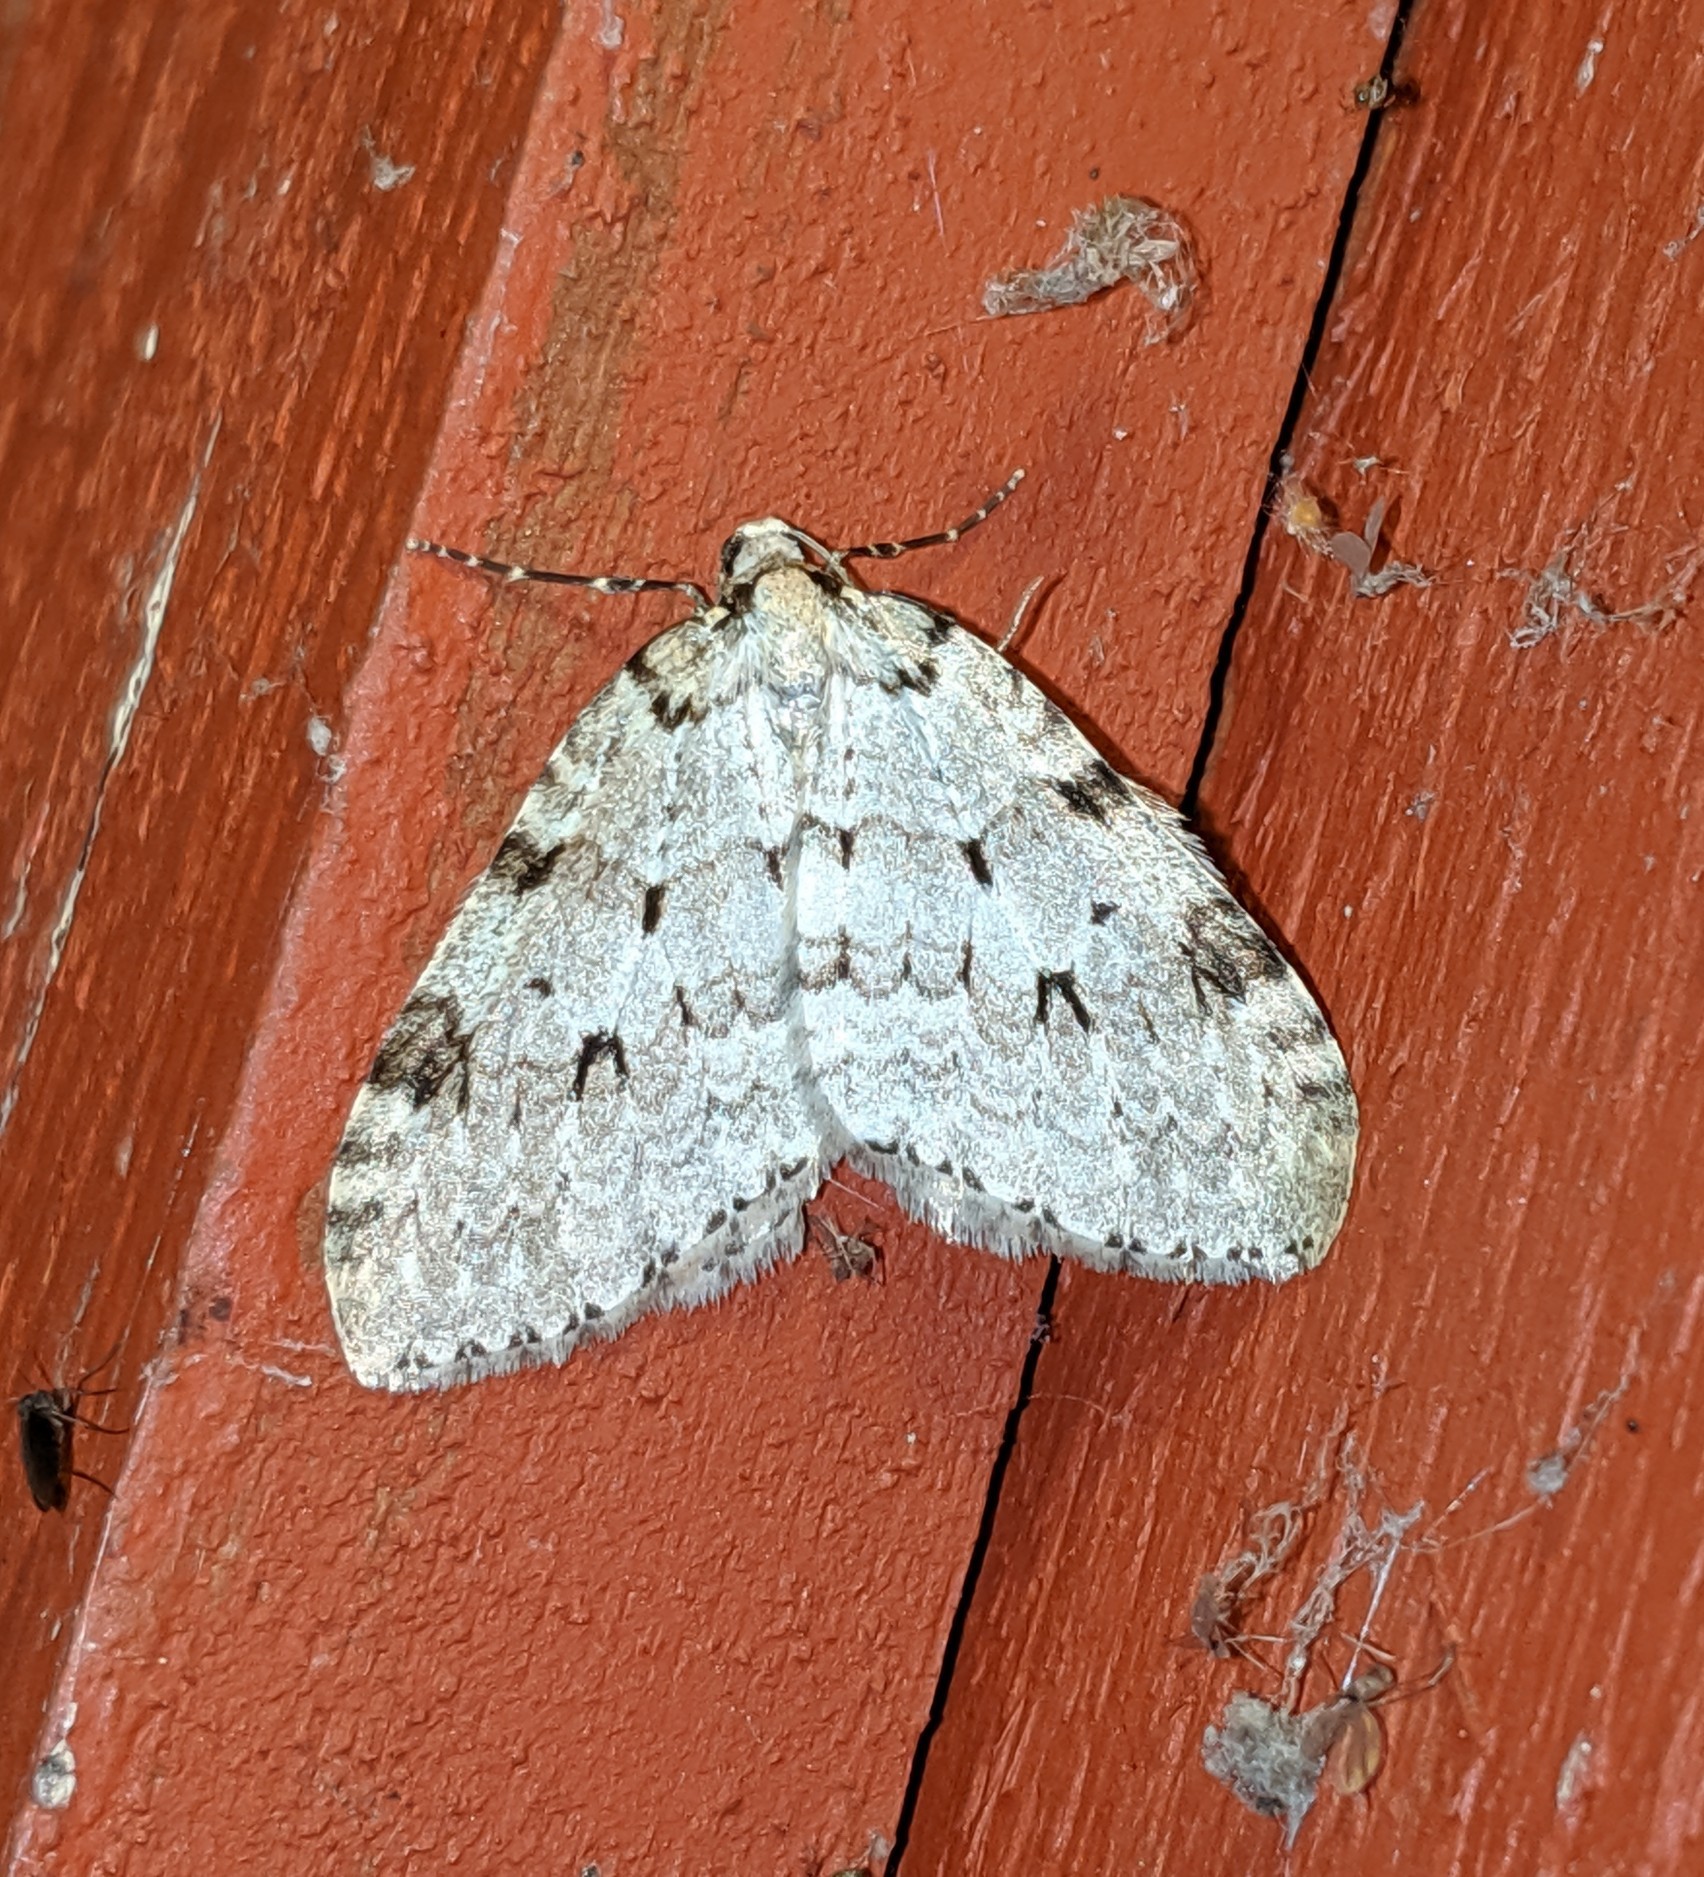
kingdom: Animalia
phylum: Arthropoda
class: Insecta
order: Lepidoptera
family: Geometridae
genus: Epirrita
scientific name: Epirrita autumnata
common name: Autumnal moth
